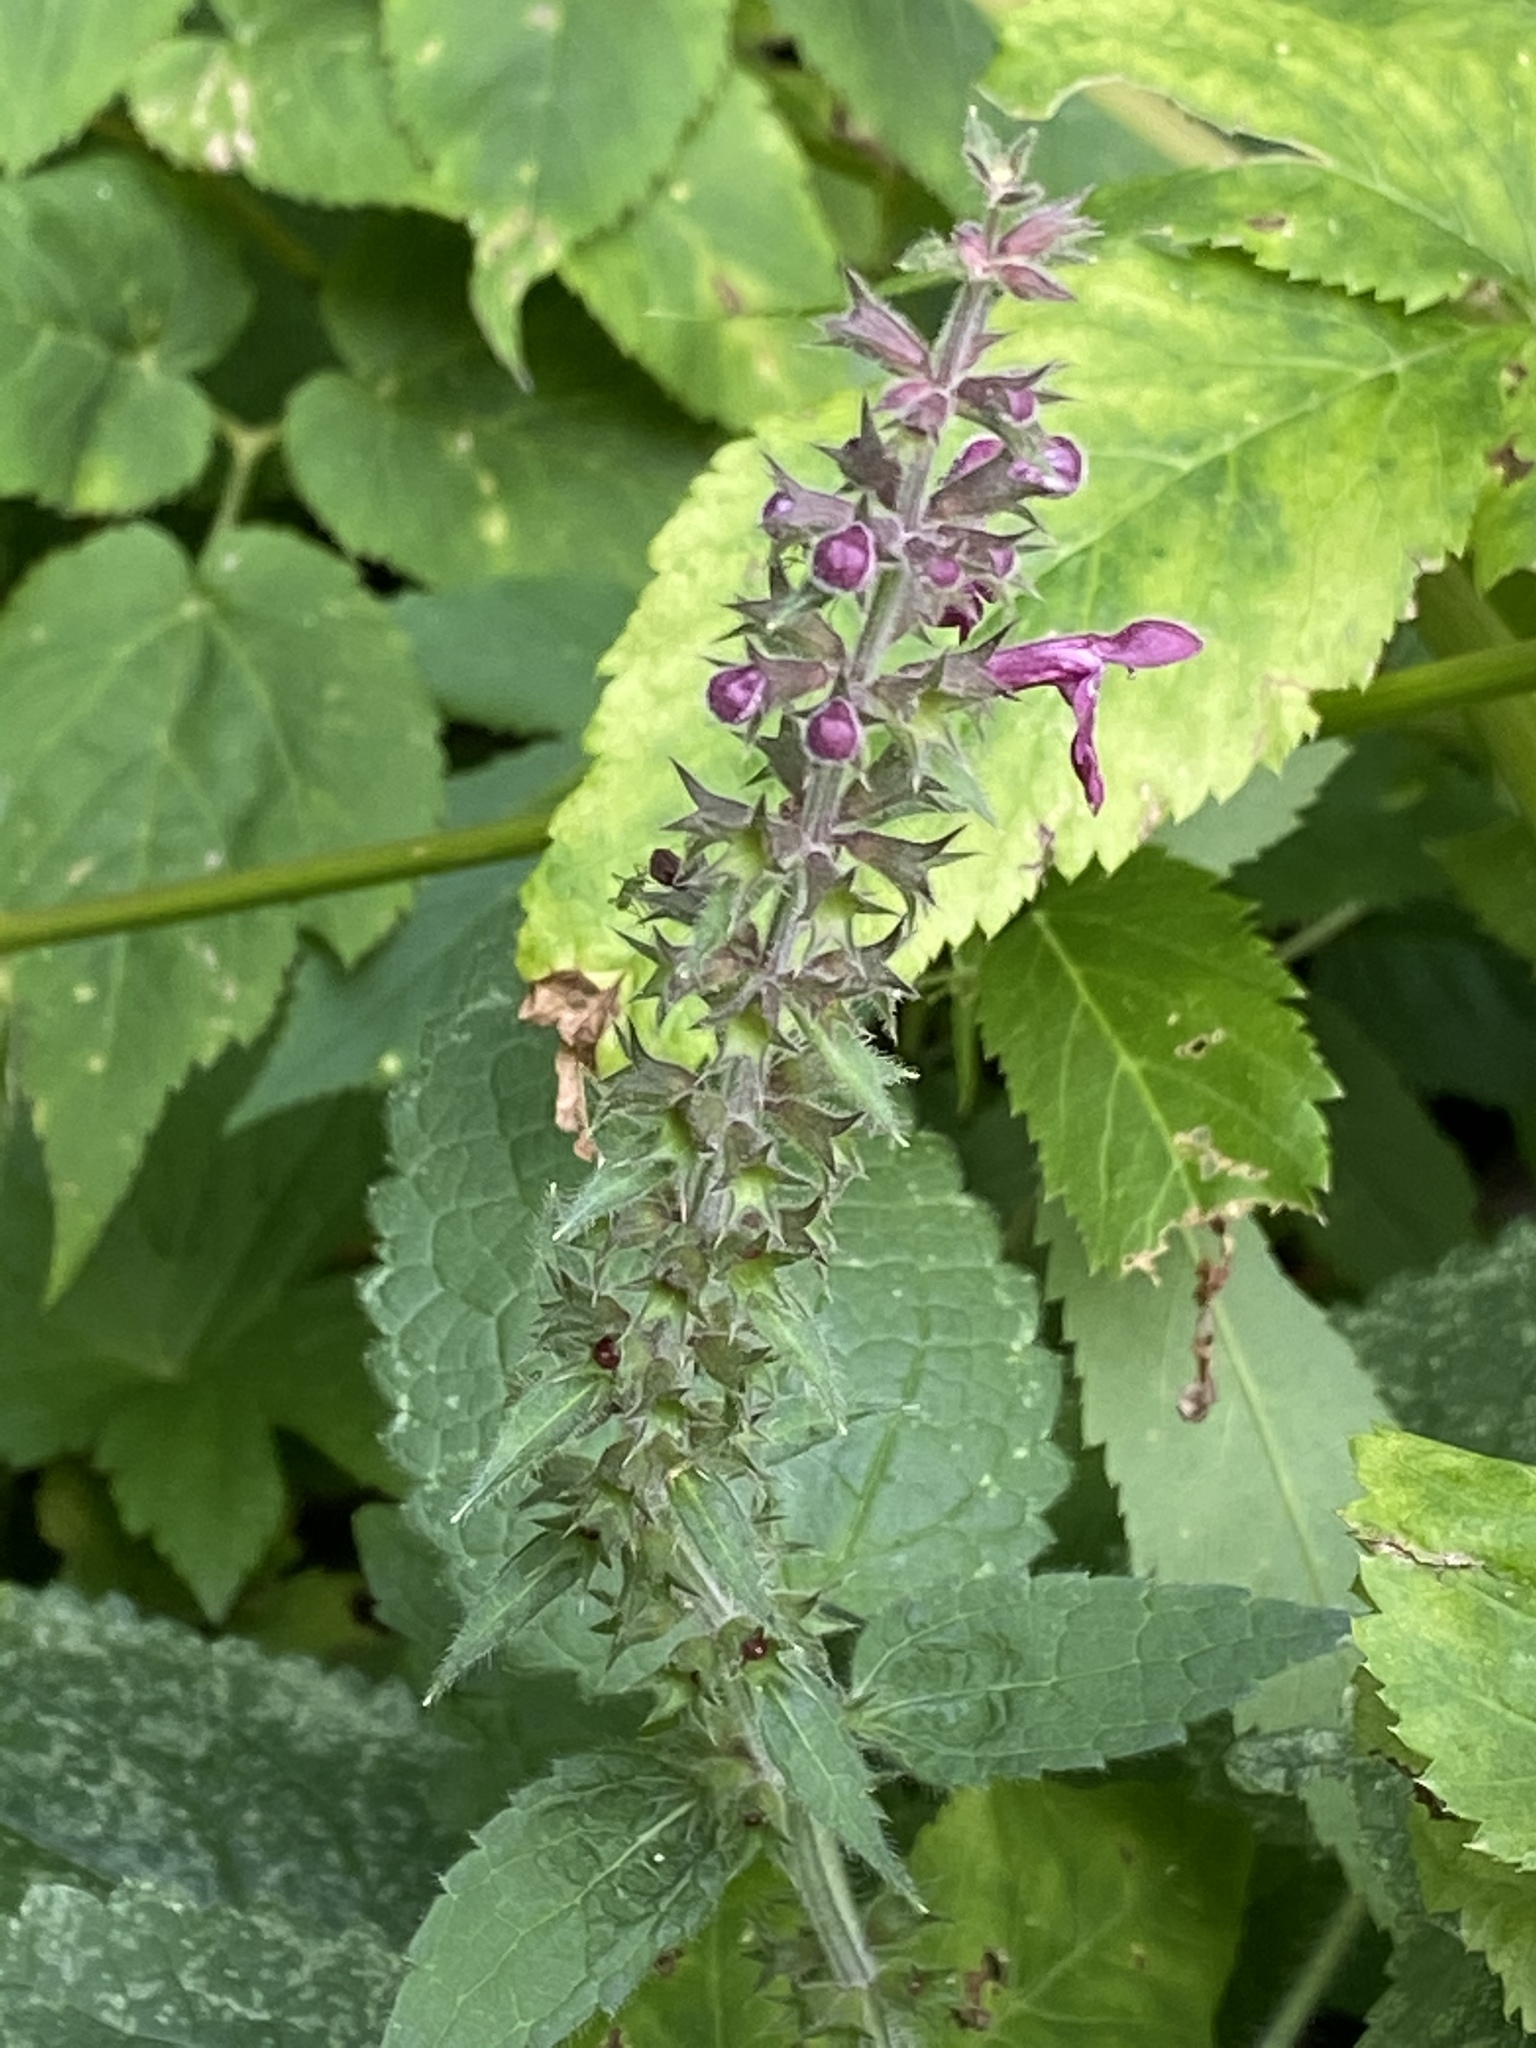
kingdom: Plantae
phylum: Tracheophyta
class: Magnoliopsida
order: Lamiales
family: Lamiaceae
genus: Stachys
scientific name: Stachys sylvatica
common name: Hedge woundwort
